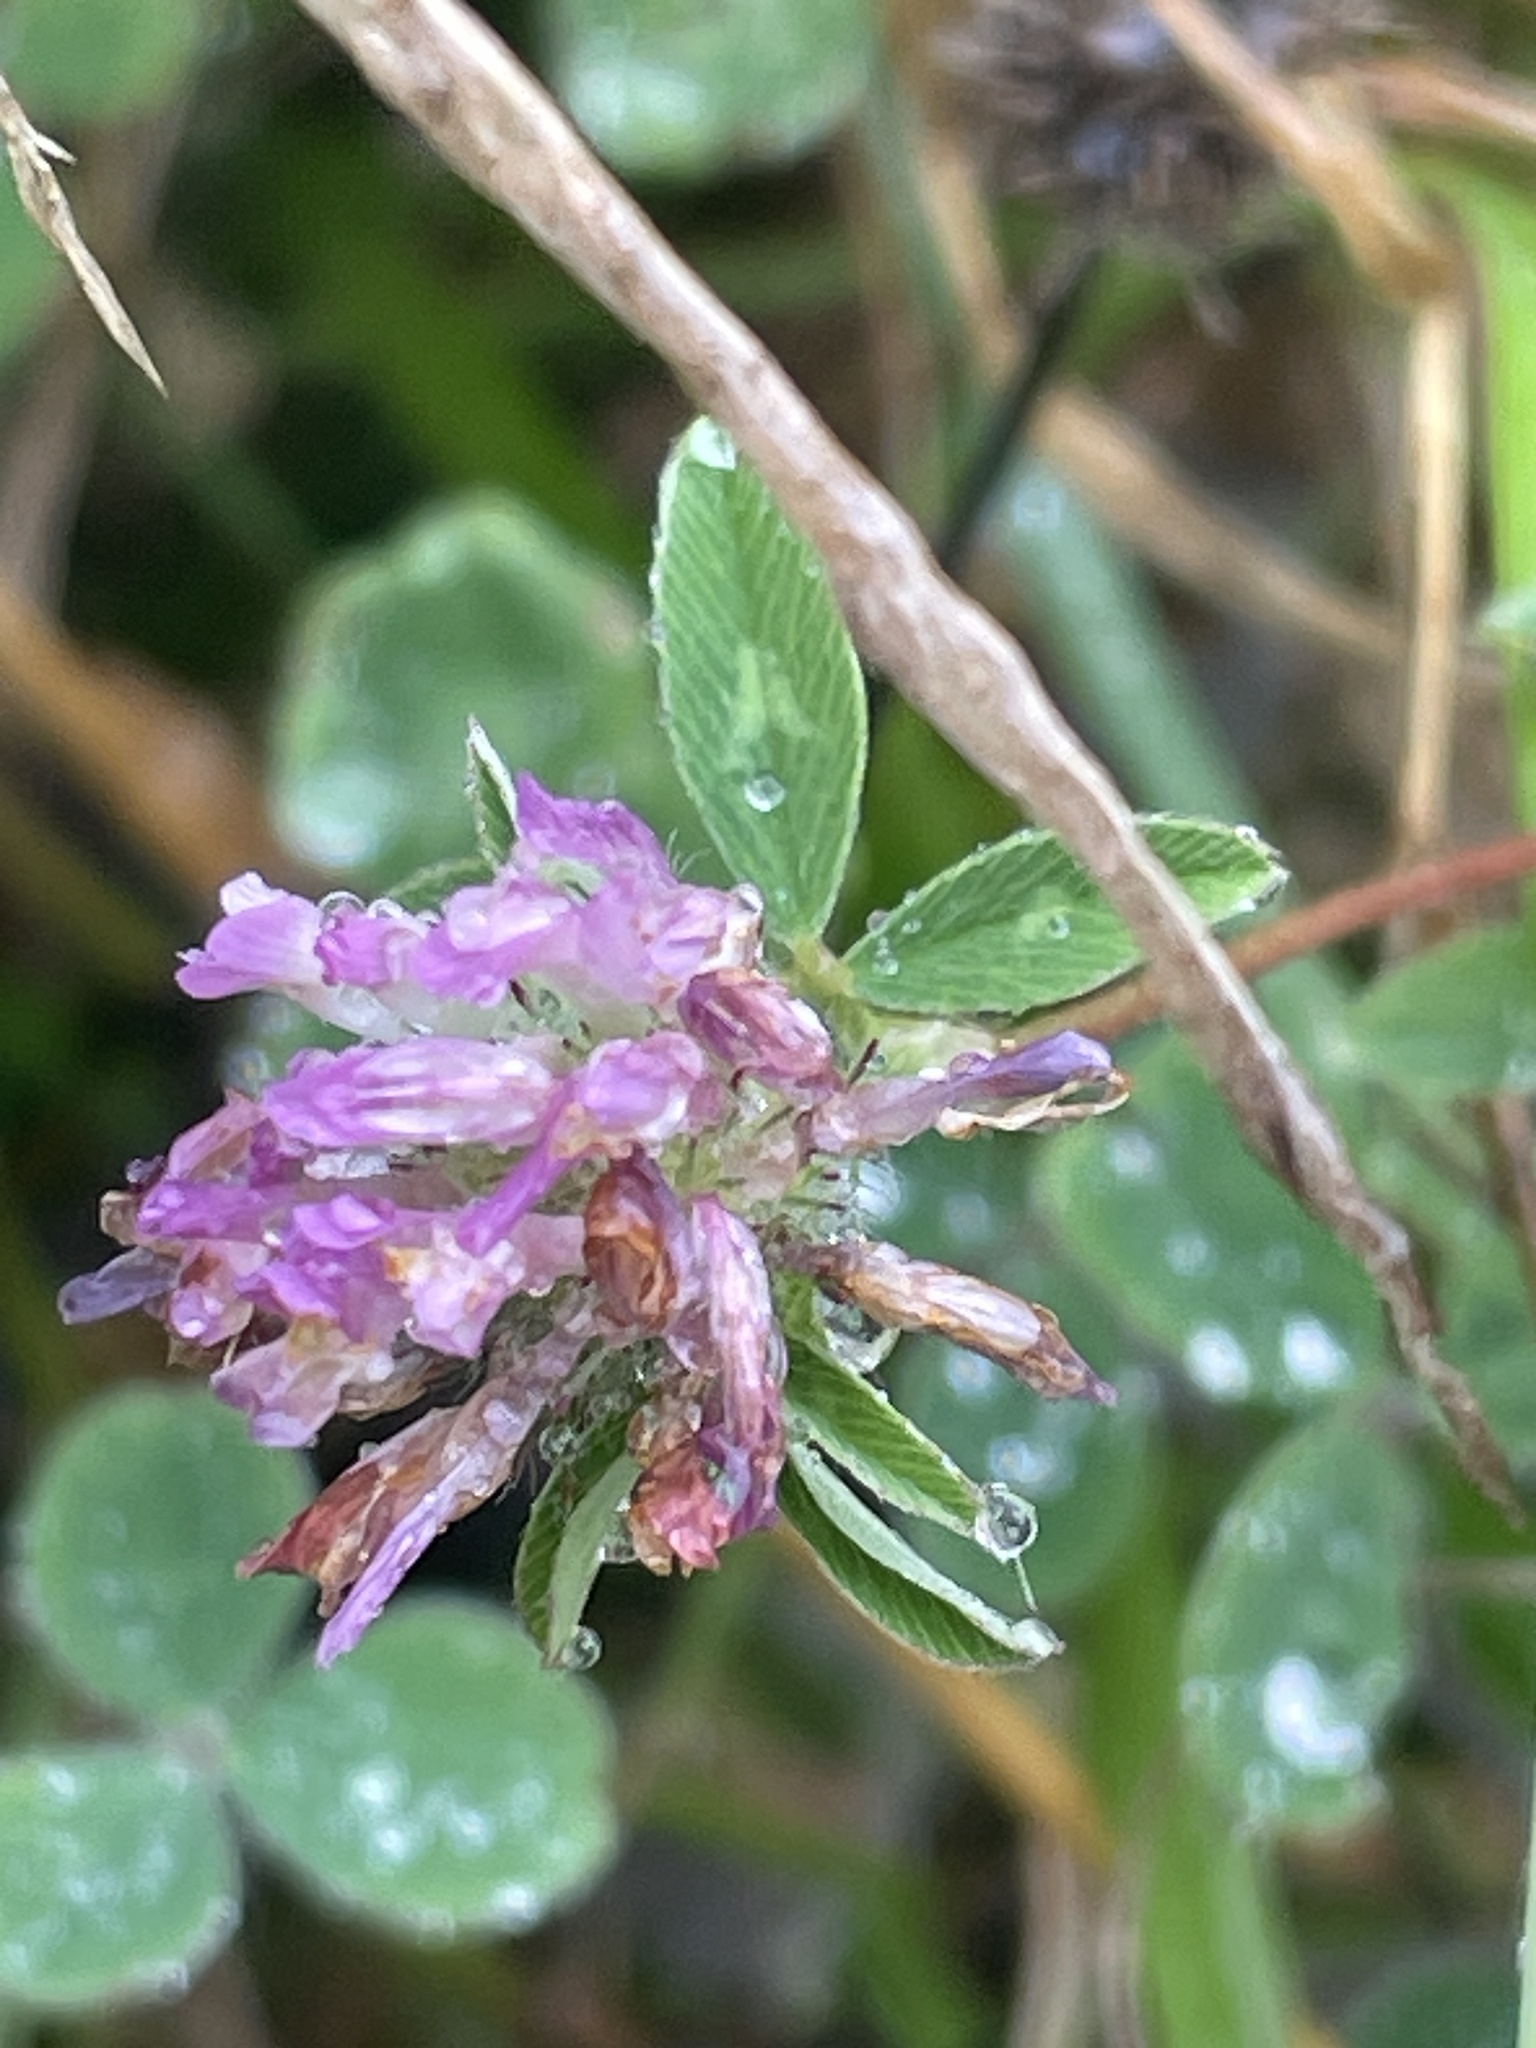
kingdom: Plantae
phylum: Tracheophyta
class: Magnoliopsida
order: Fabales
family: Fabaceae
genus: Trifolium
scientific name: Trifolium pratense
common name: Red clover
